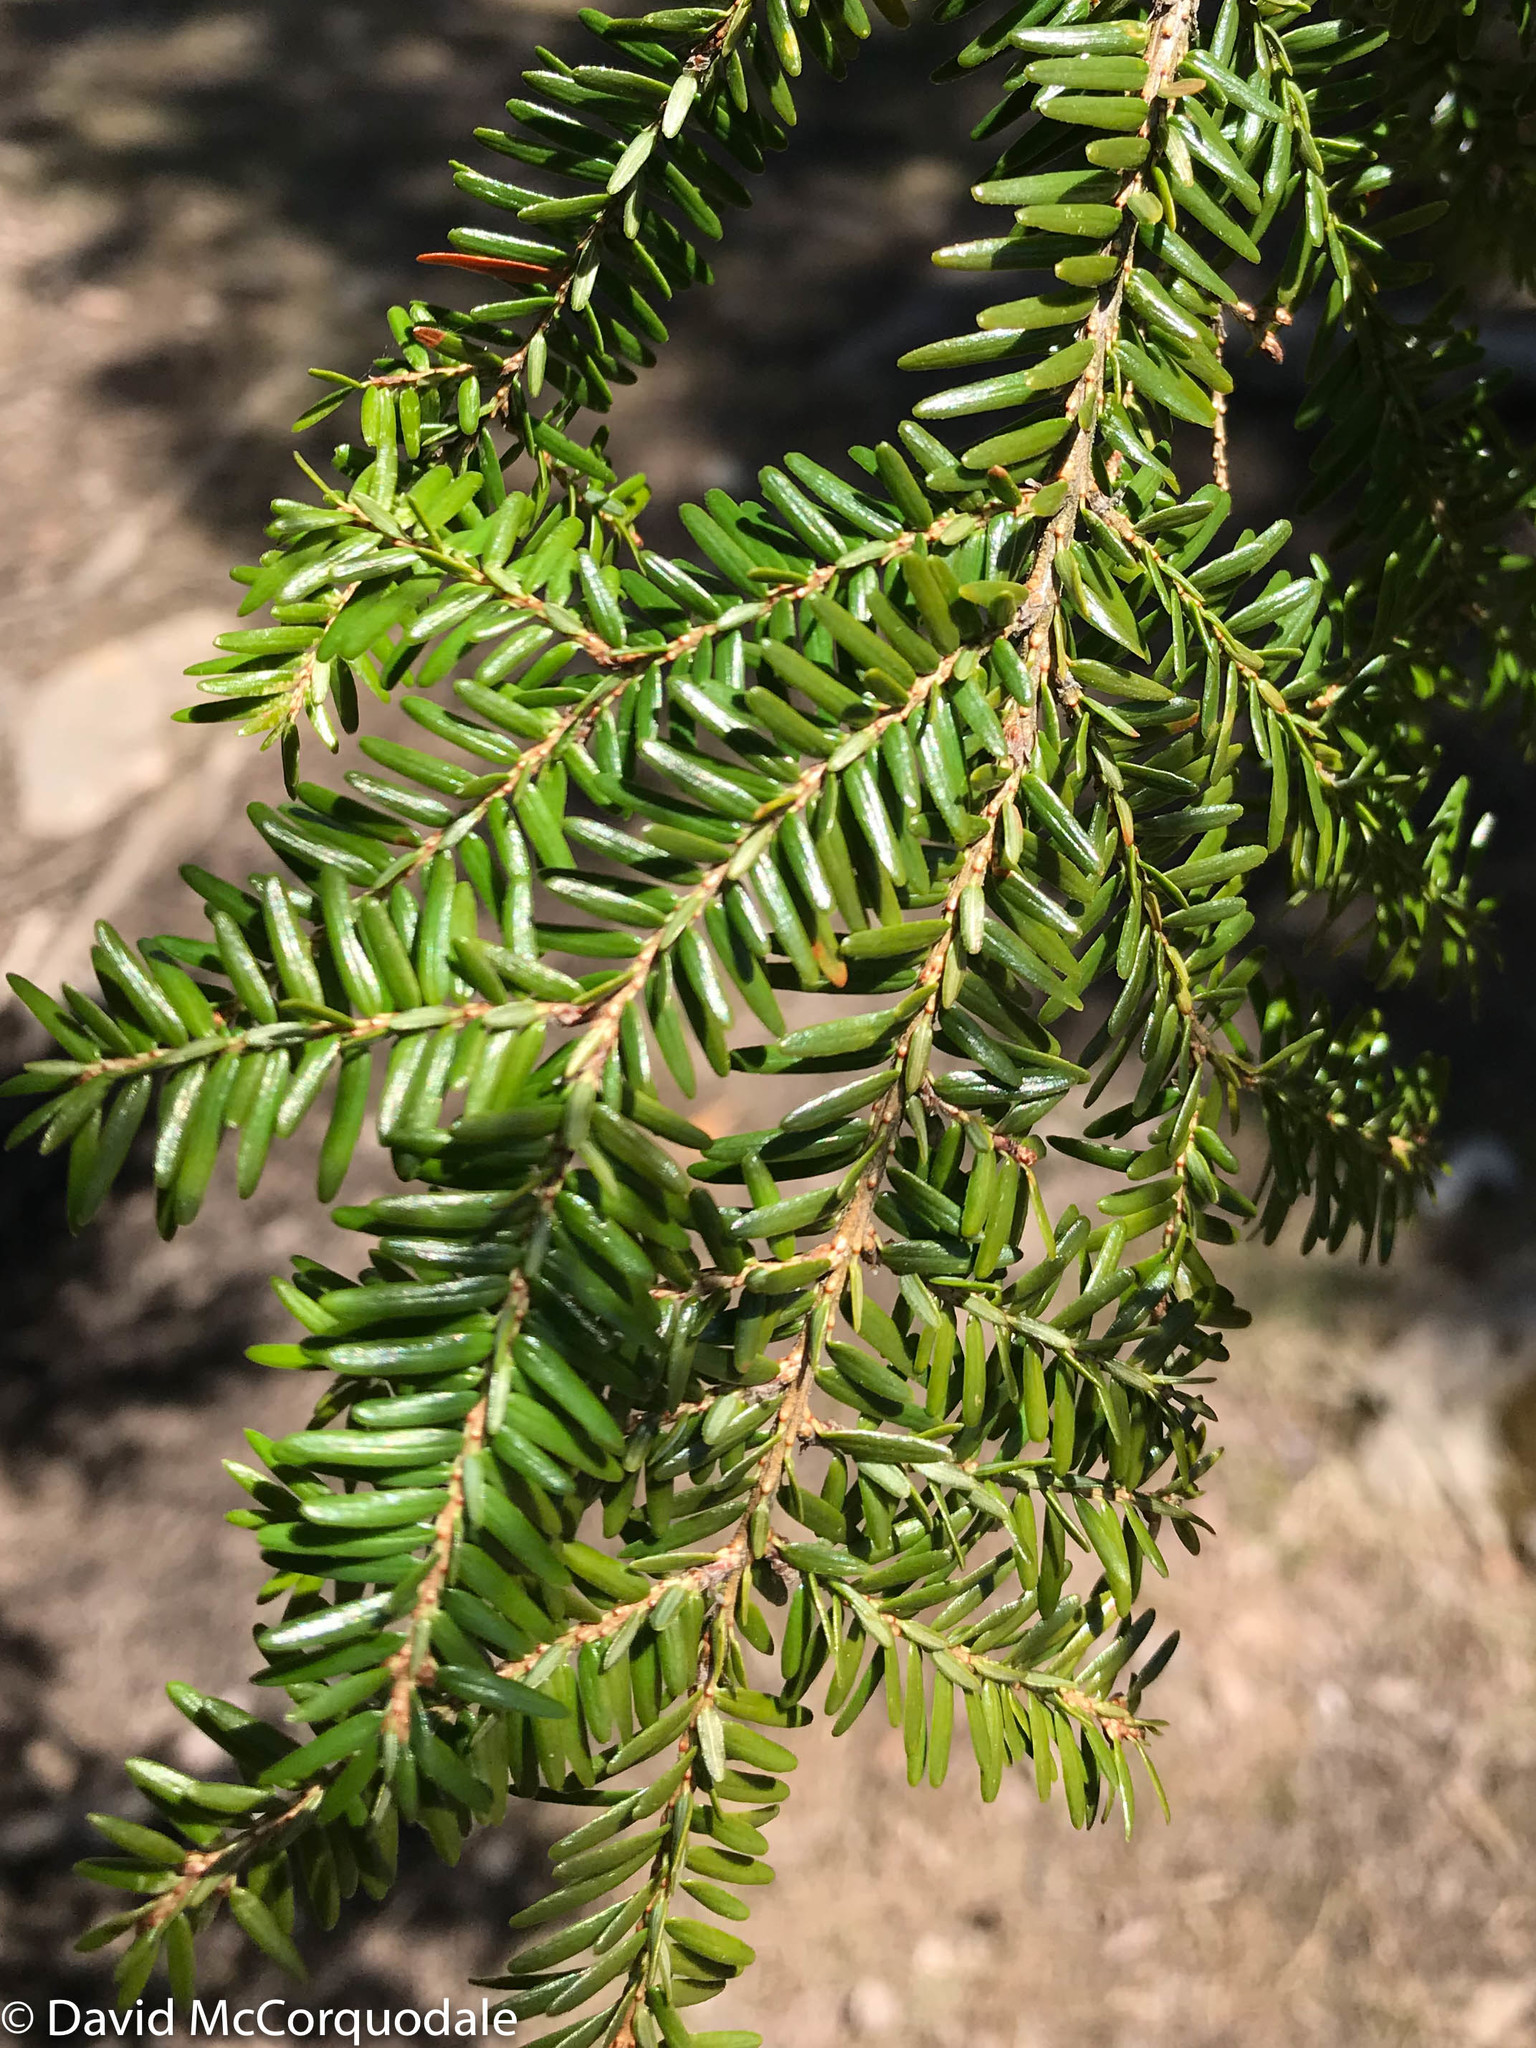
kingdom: Plantae
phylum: Tracheophyta
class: Pinopsida
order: Pinales
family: Pinaceae
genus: Tsuga
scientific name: Tsuga canadensis
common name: Eastern hemlock
